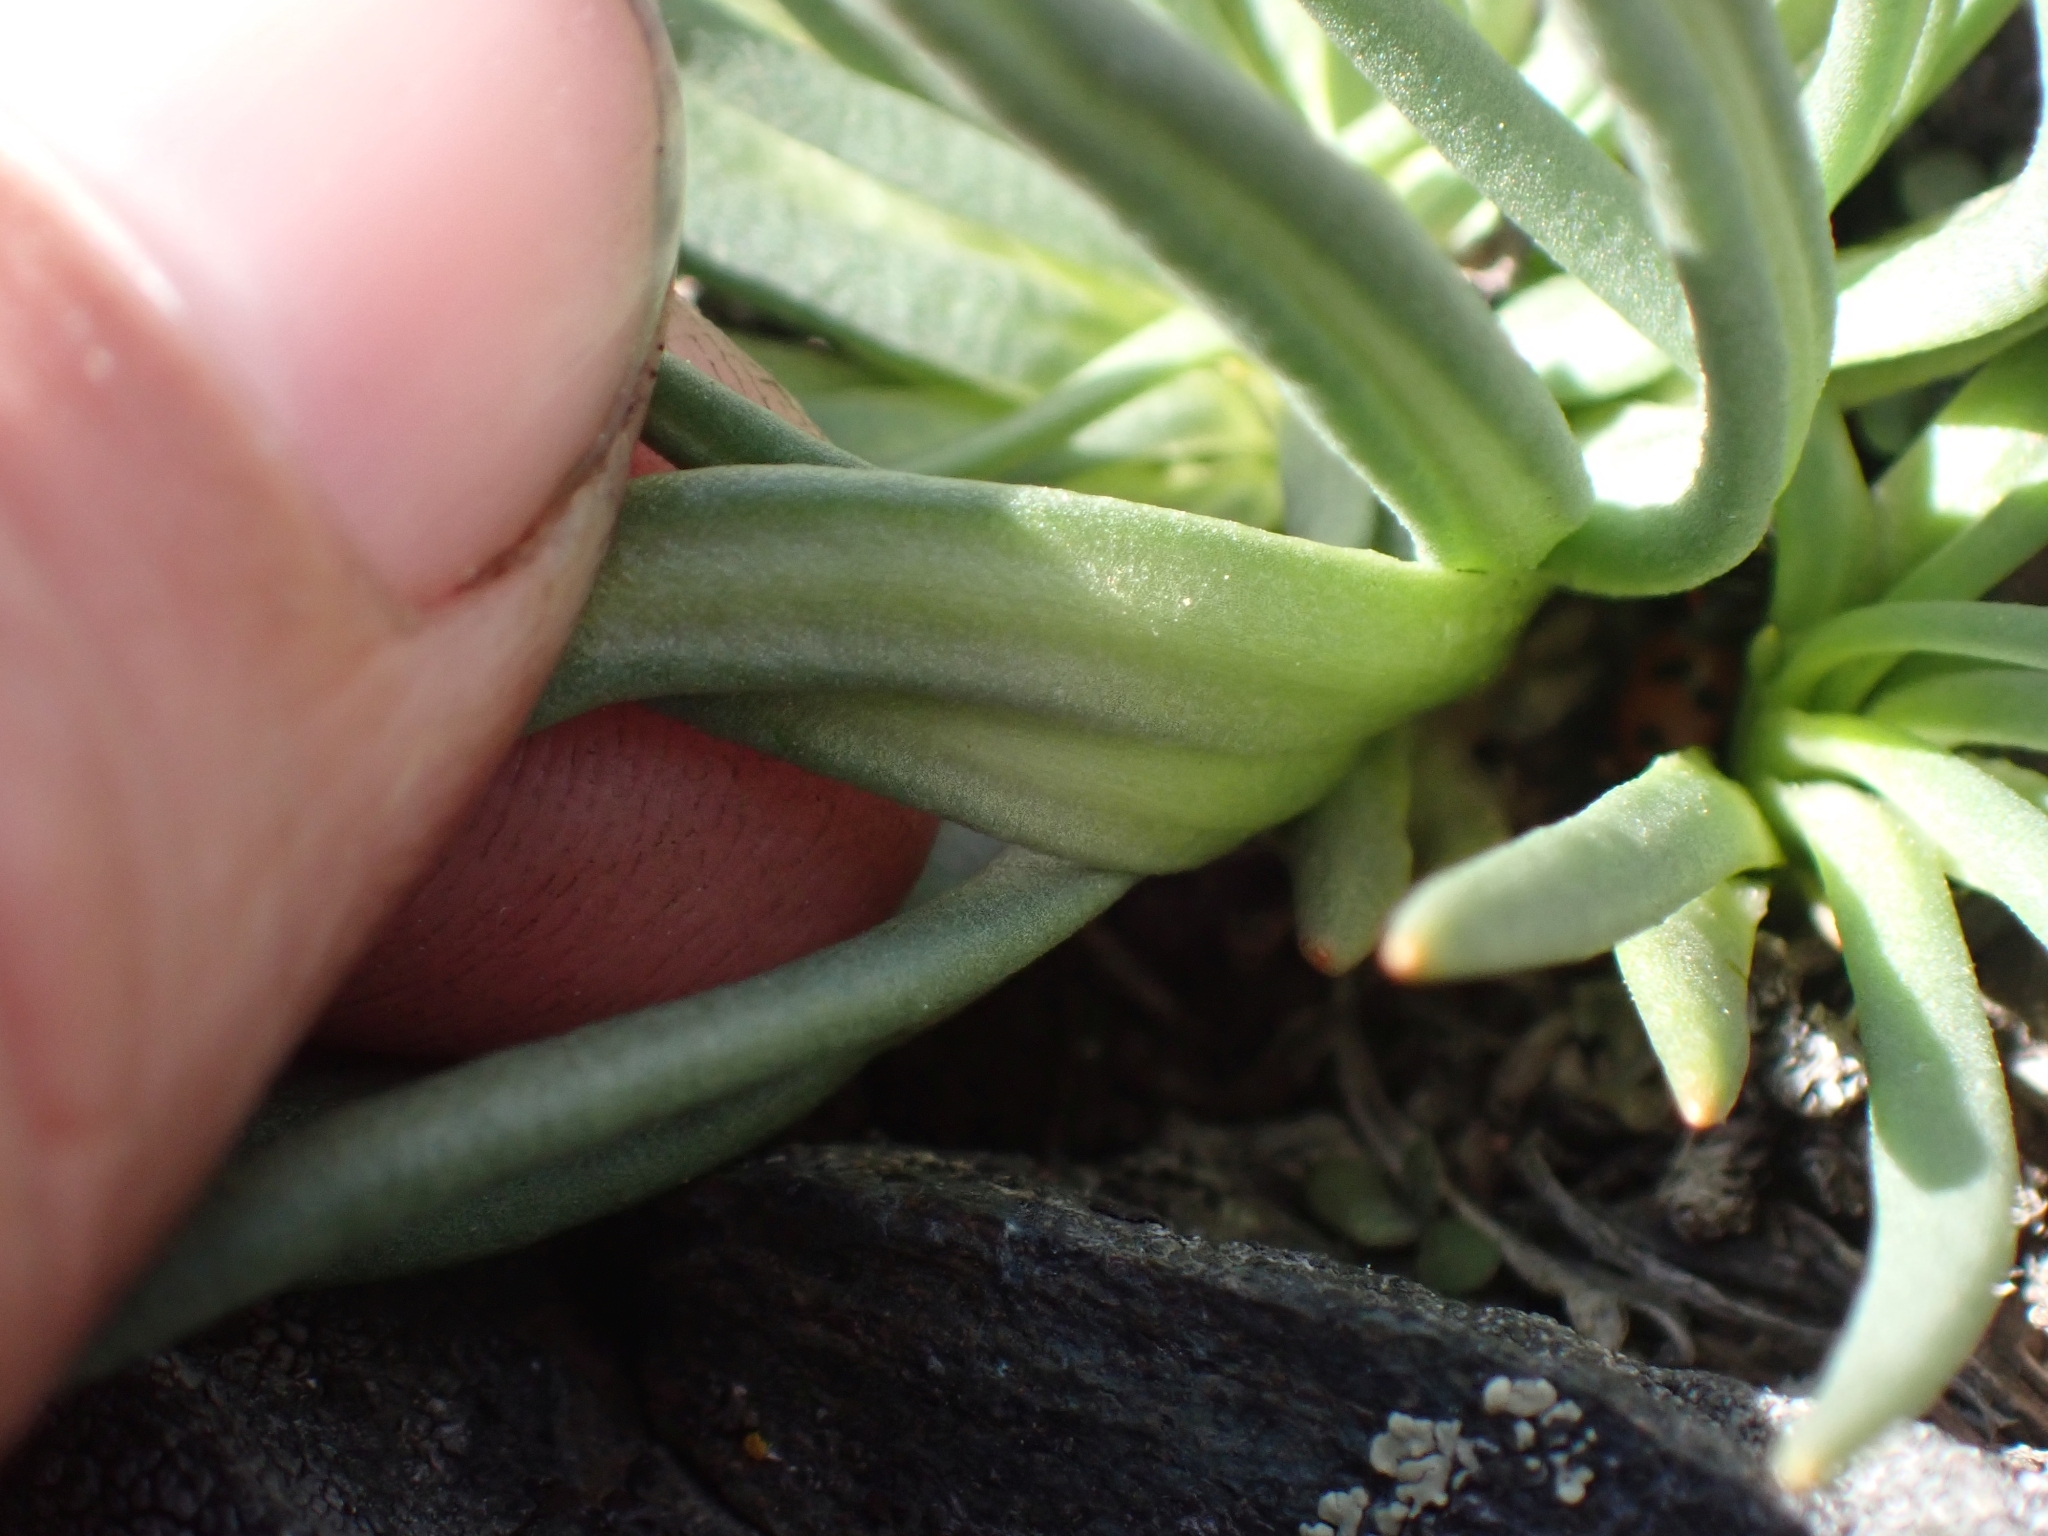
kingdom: Plantae
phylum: Tracheophyta
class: Magnoliopsida
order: Caryophyllales
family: Montiaceae
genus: Lewisia
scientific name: Lewisia rediviva
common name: Bitter-root
